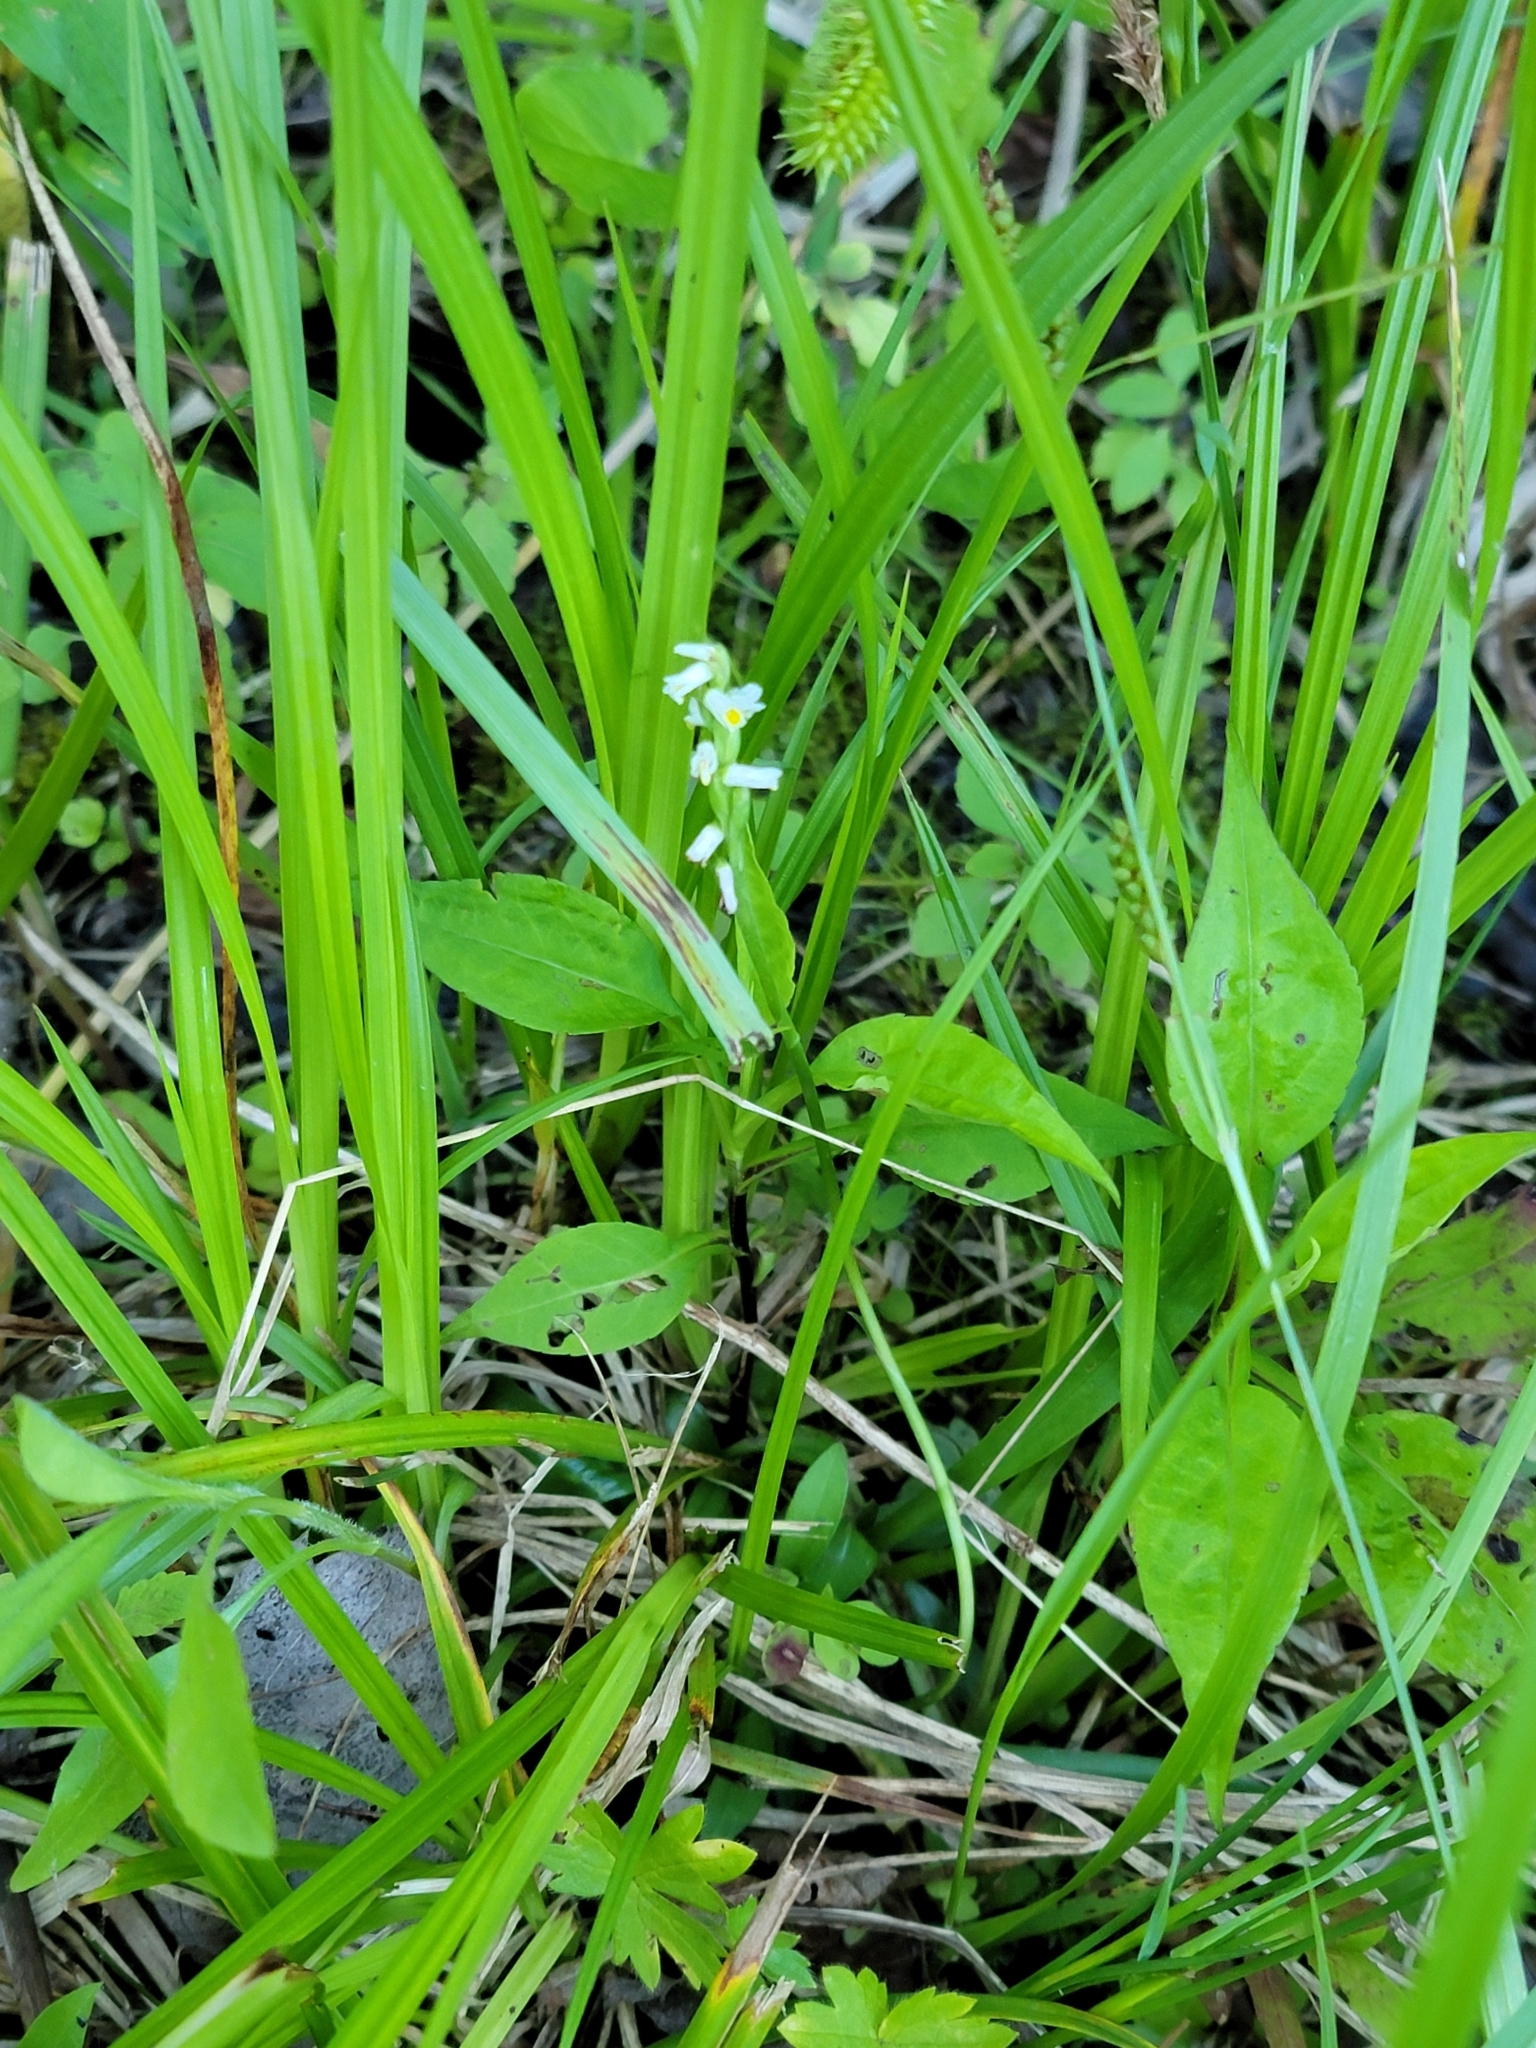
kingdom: Plantae
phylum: Tracheophyta
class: Liliopsida
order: Asparagales
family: Orchidaceae
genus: Spiranthes
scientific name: Spiranthes lucida
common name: Broad-leaved ladies'-tresses
